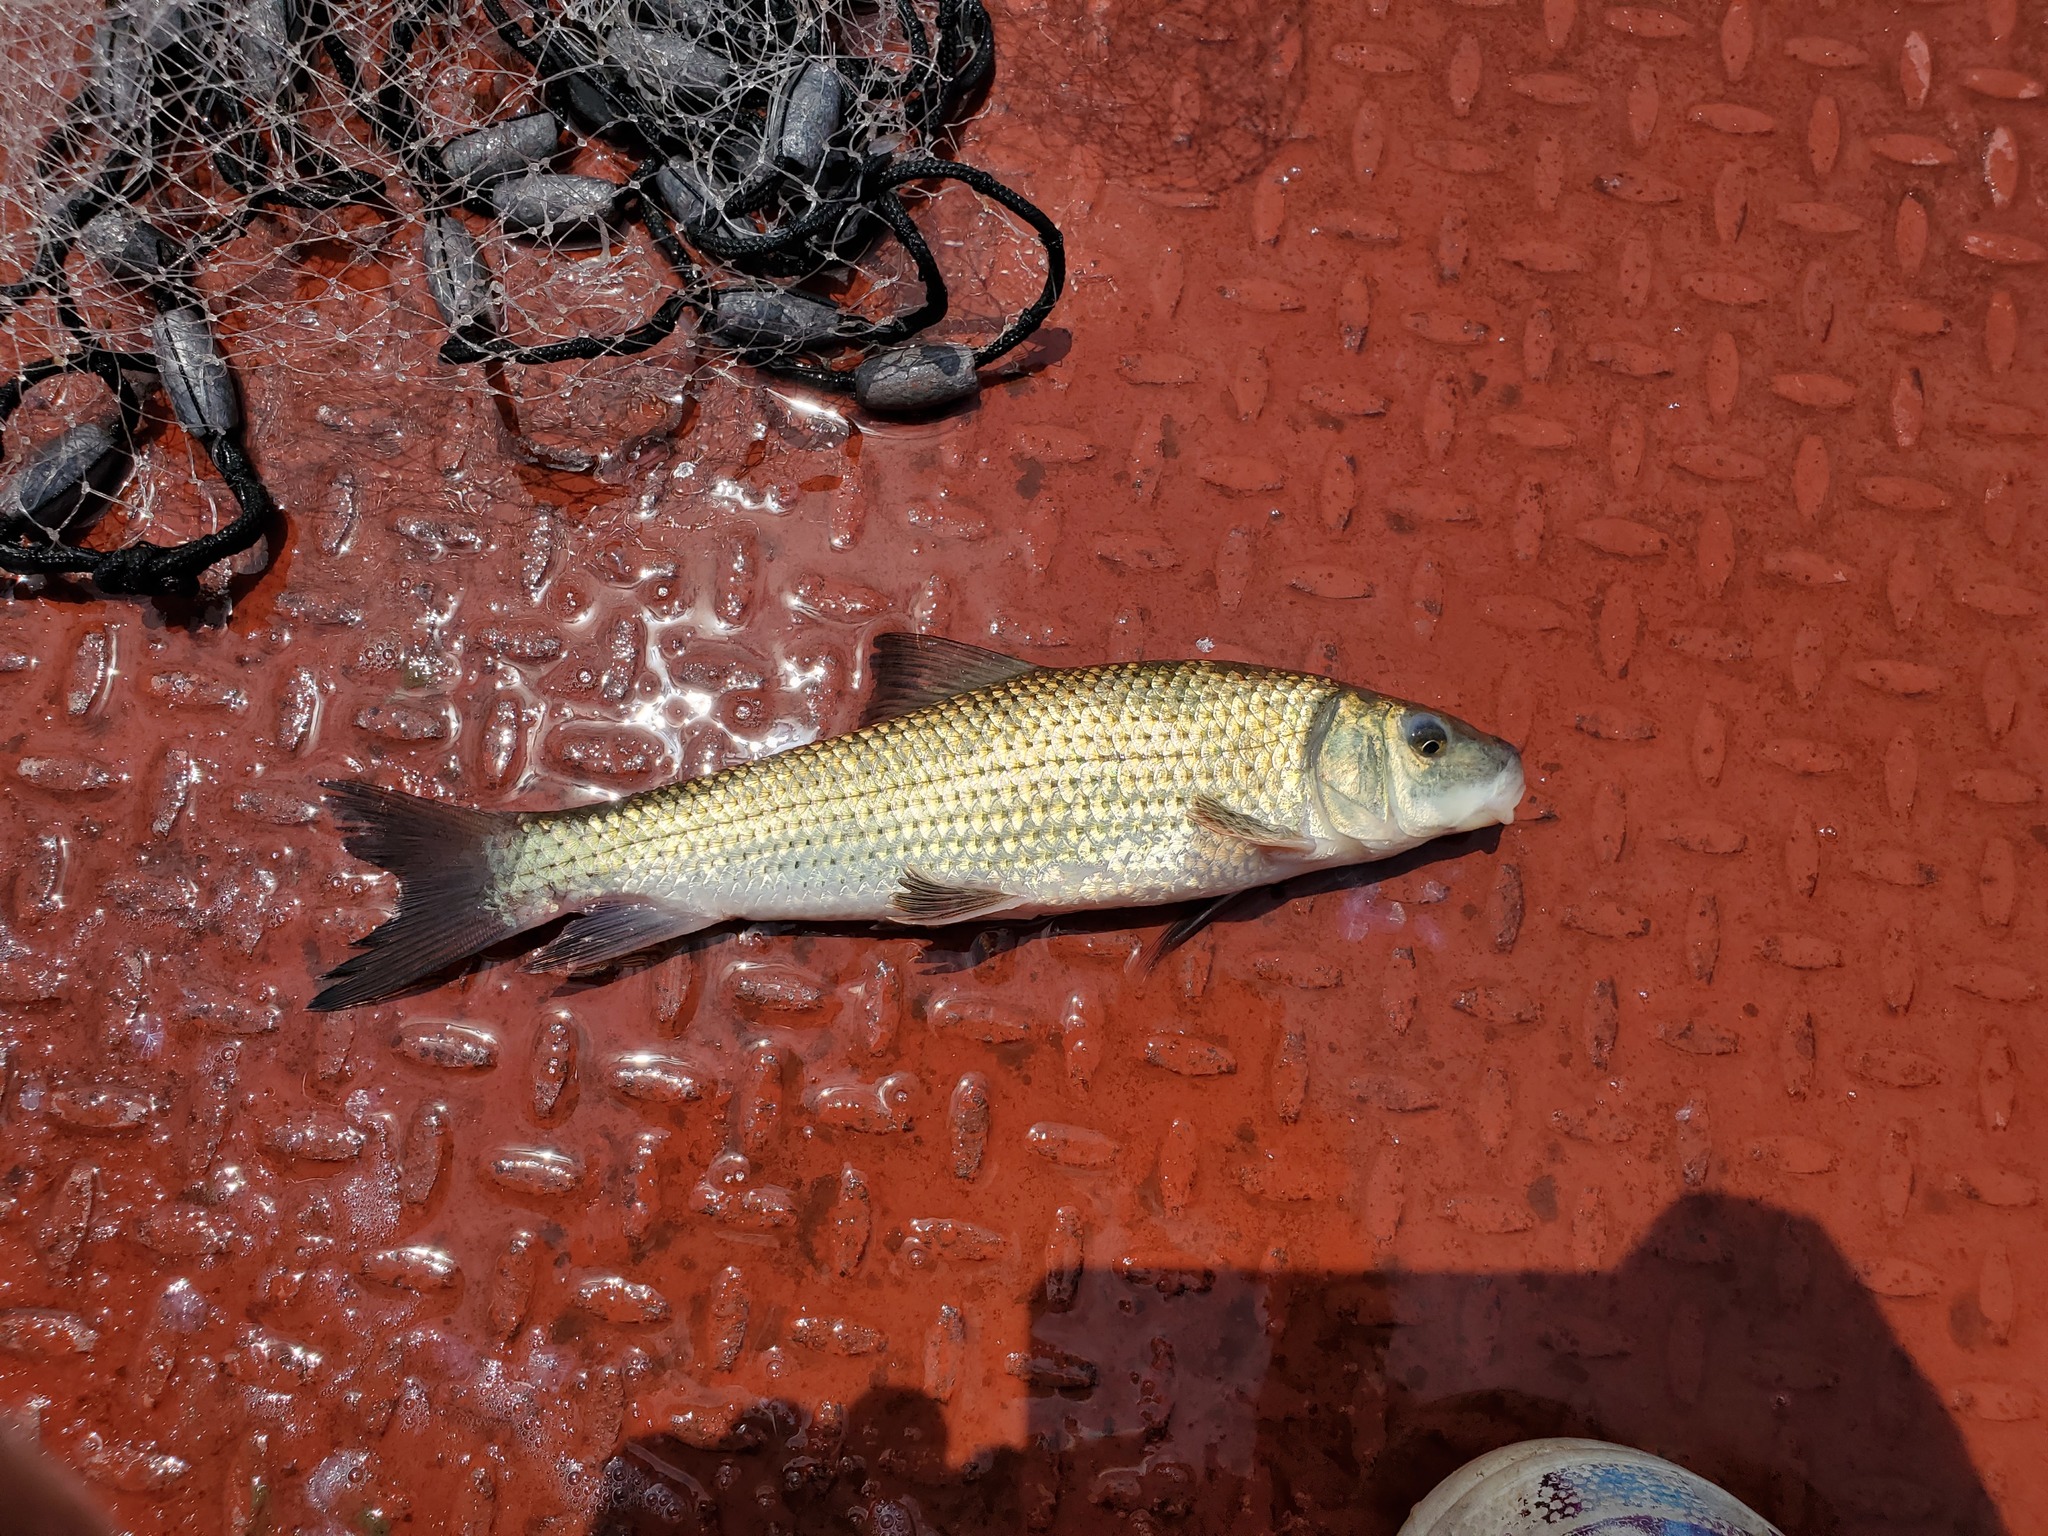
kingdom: Animalia
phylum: Chordata
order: Cypriniformes
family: Catostomidae
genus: Minytrema
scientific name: Minytrema melanops
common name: Spotted sucker
